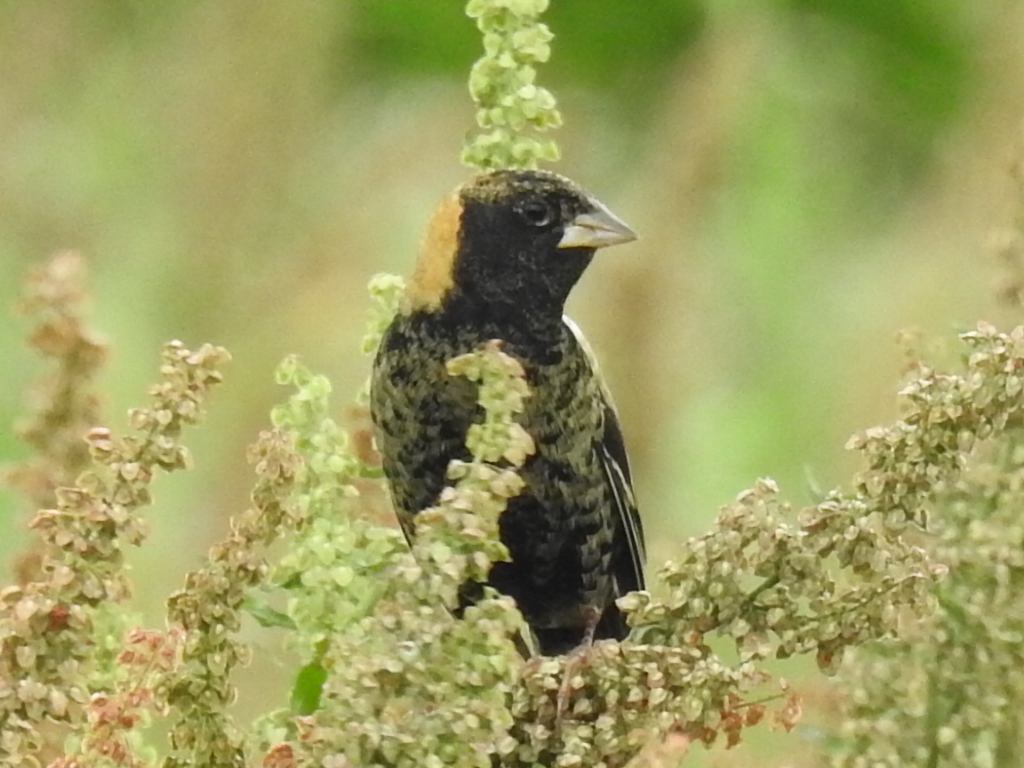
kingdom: Animalia
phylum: Chordata
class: Aves
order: Passeriformes
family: Icteridae
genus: Dolichonyx
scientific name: Dolichonyx oryzivorus
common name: Bobolink
